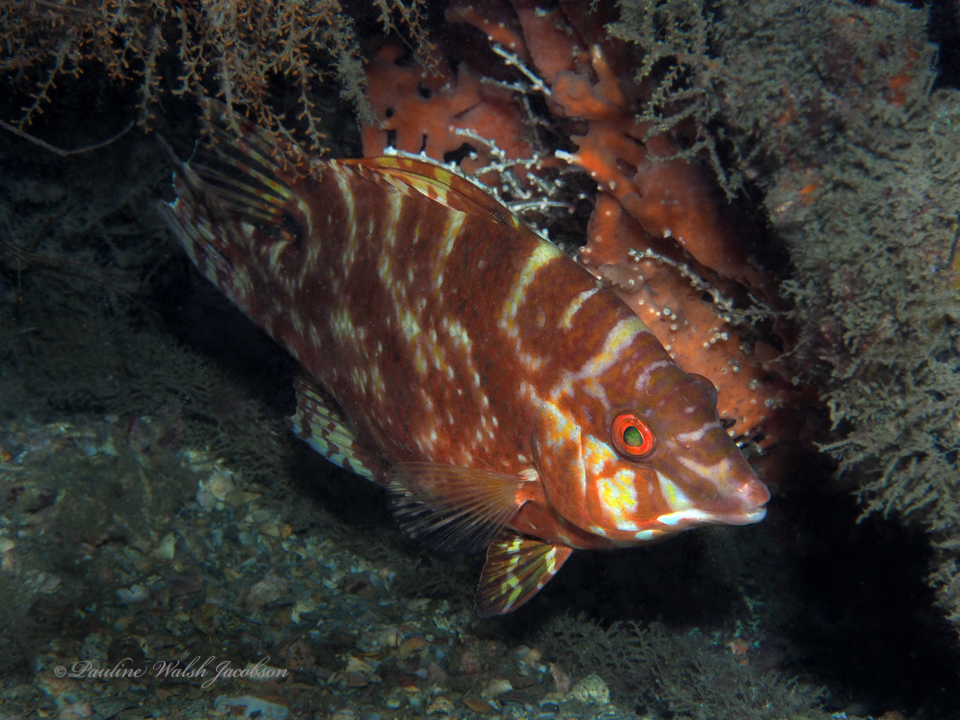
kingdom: Animalia
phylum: Chordata
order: Perciformes
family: Labridae
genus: Lachnolaimus
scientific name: Lachnolaimus maximus
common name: Hogfish
